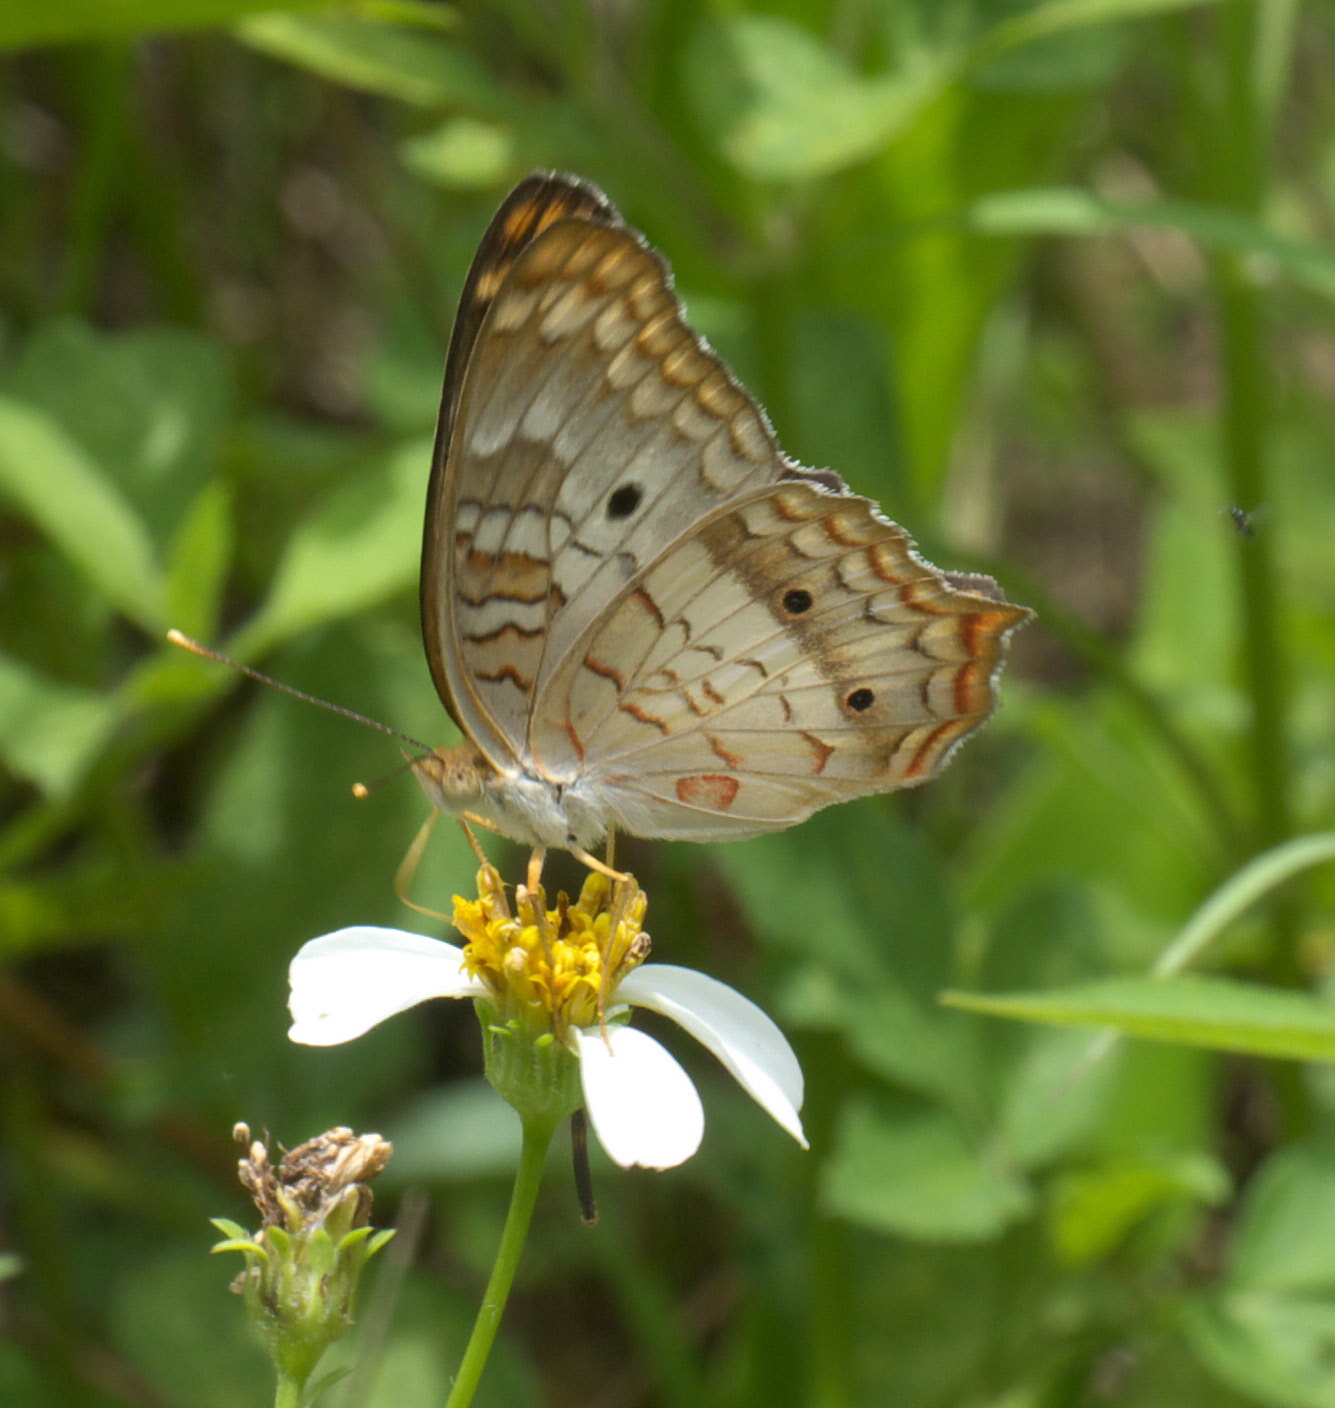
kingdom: Animalia
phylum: Arthropoda
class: Insecta
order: Lepidoptera
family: Nymphalidae
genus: Anartia
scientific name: Anartia jatrophae
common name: White peacock
